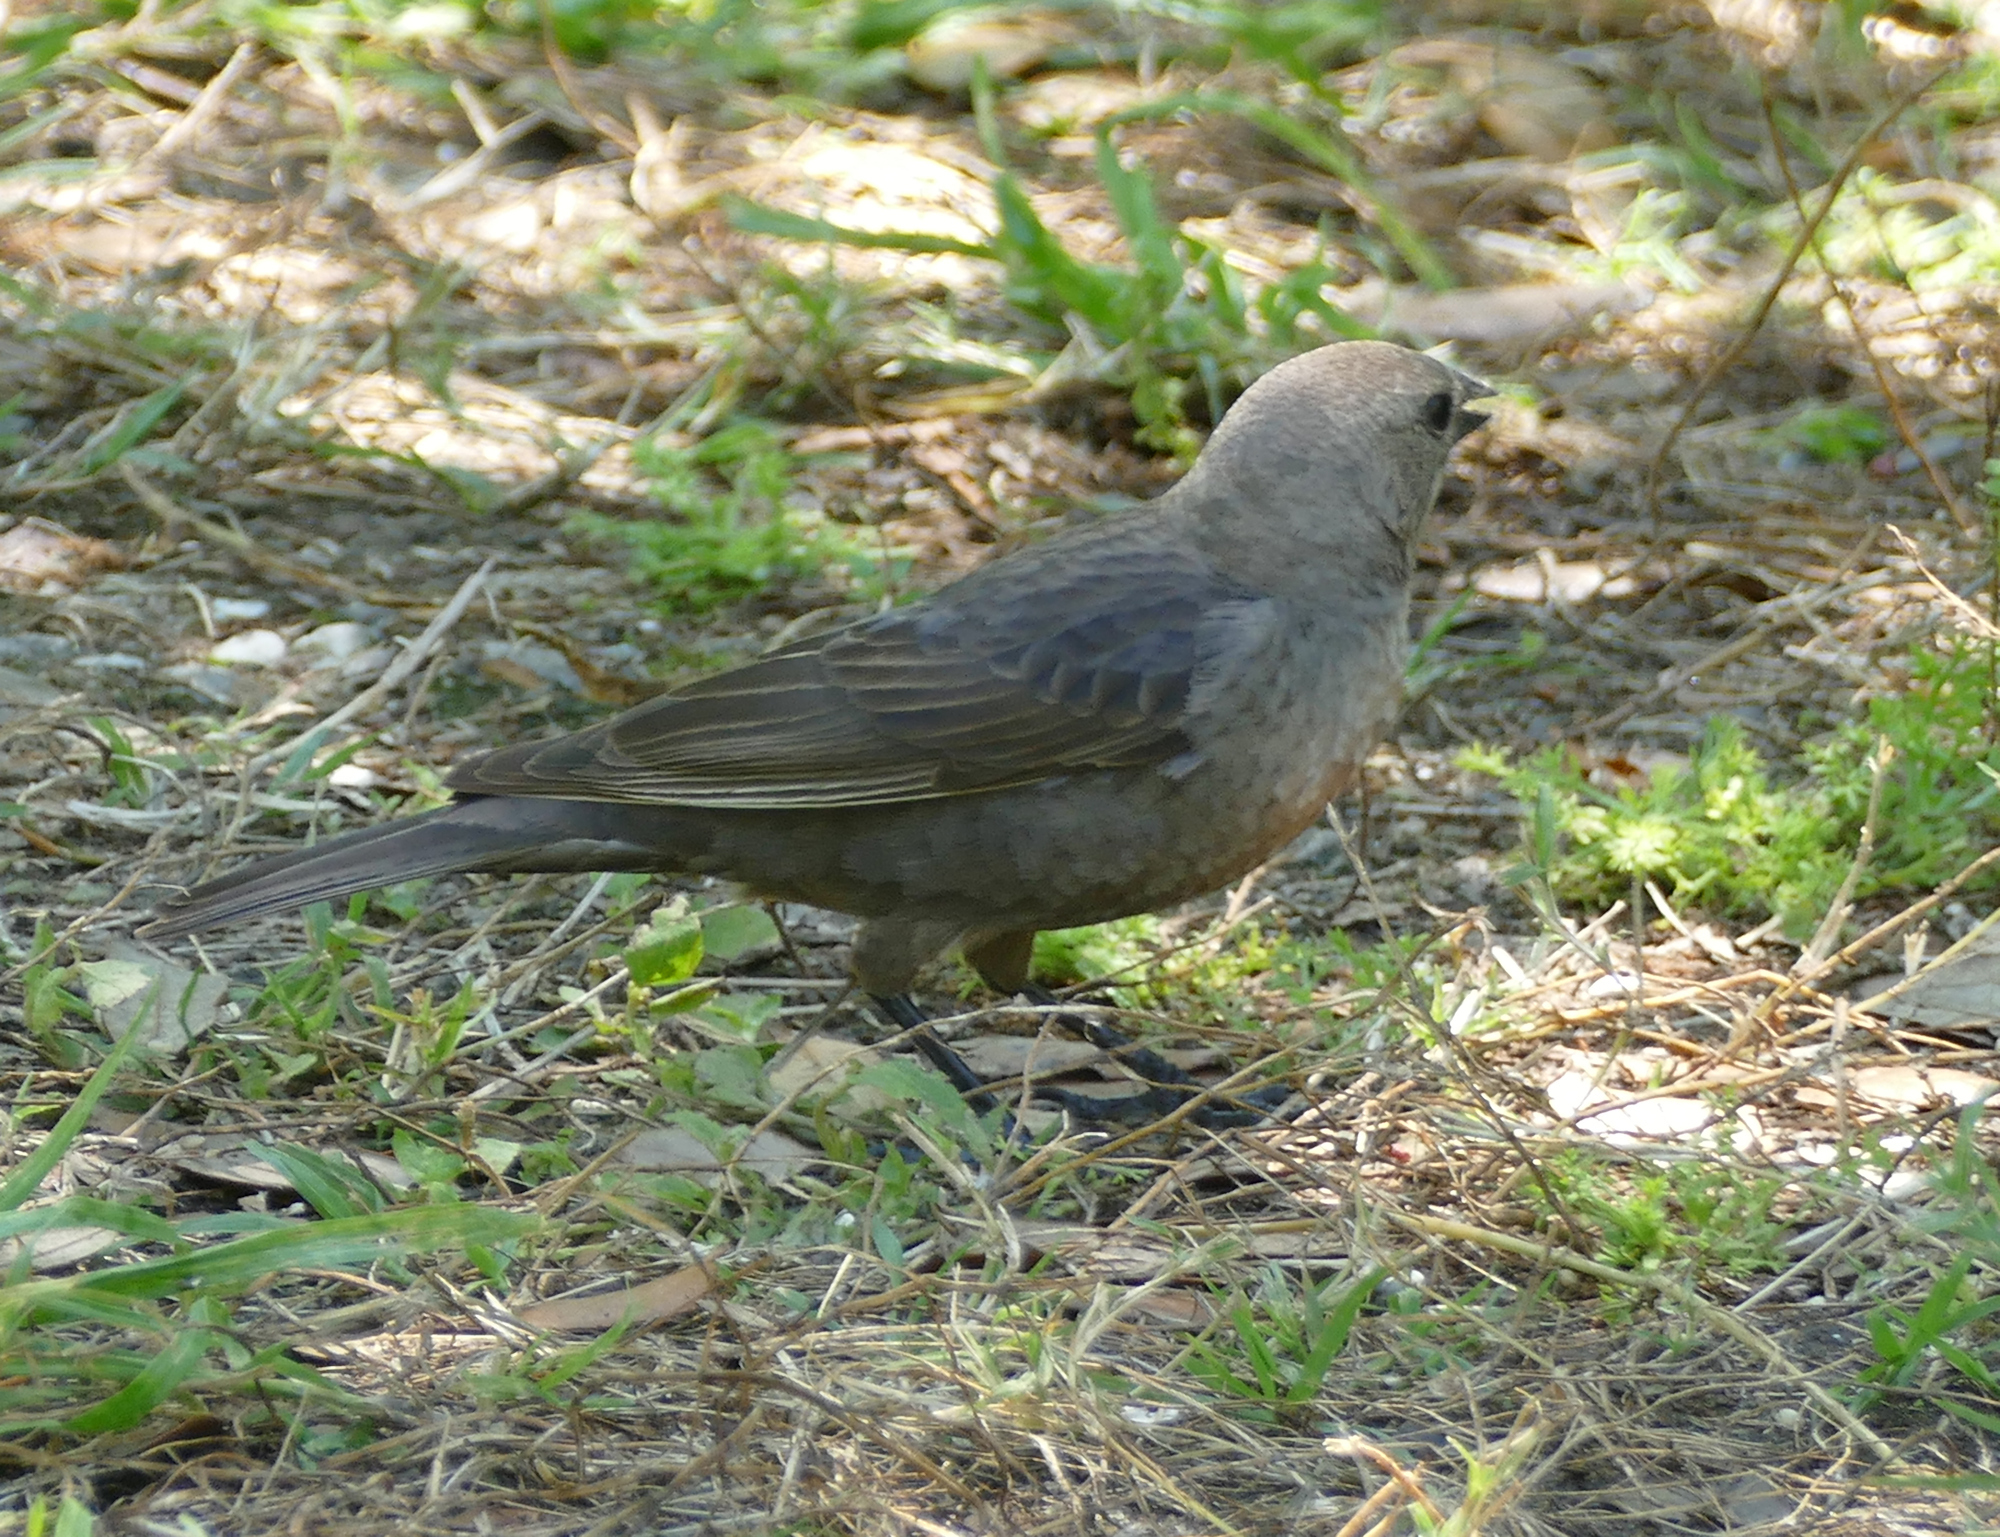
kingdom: Animalia
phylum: Chordata
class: Aves
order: Passeriformes
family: Icteridae
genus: Molothrus
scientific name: Molothrus ater
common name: Brown-headed cowbird
